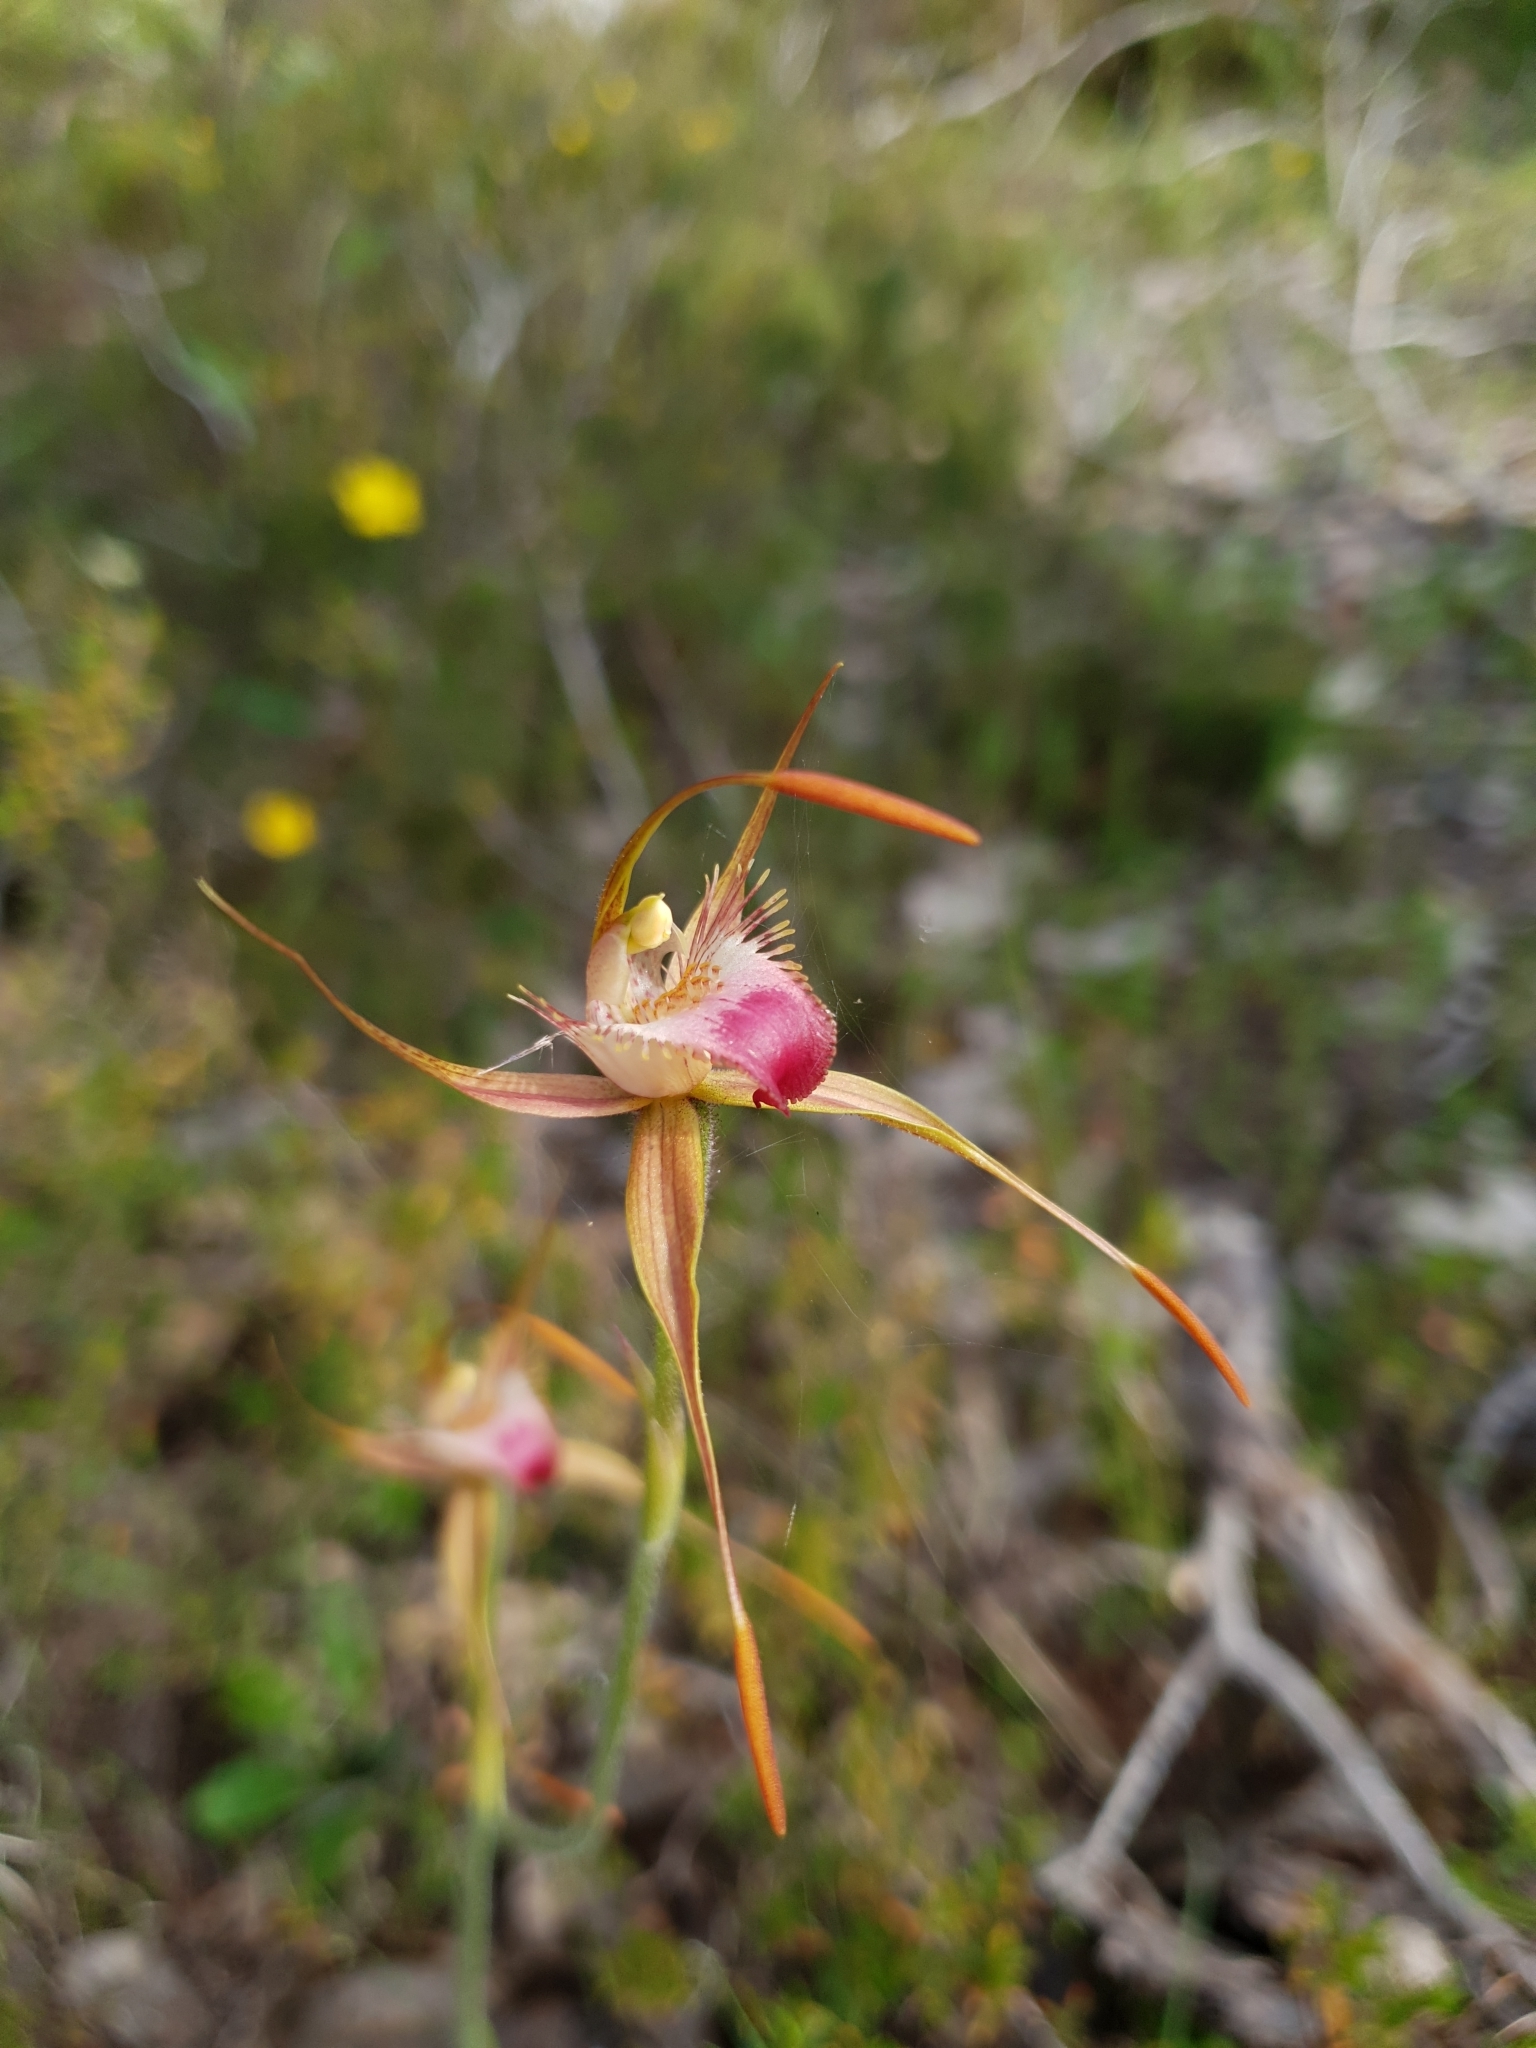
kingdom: Plantae
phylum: Tracheophyta
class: Liliopsida
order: Asparagales
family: Orchidaceae
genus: Caladenia
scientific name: Caladenia ferruginea
